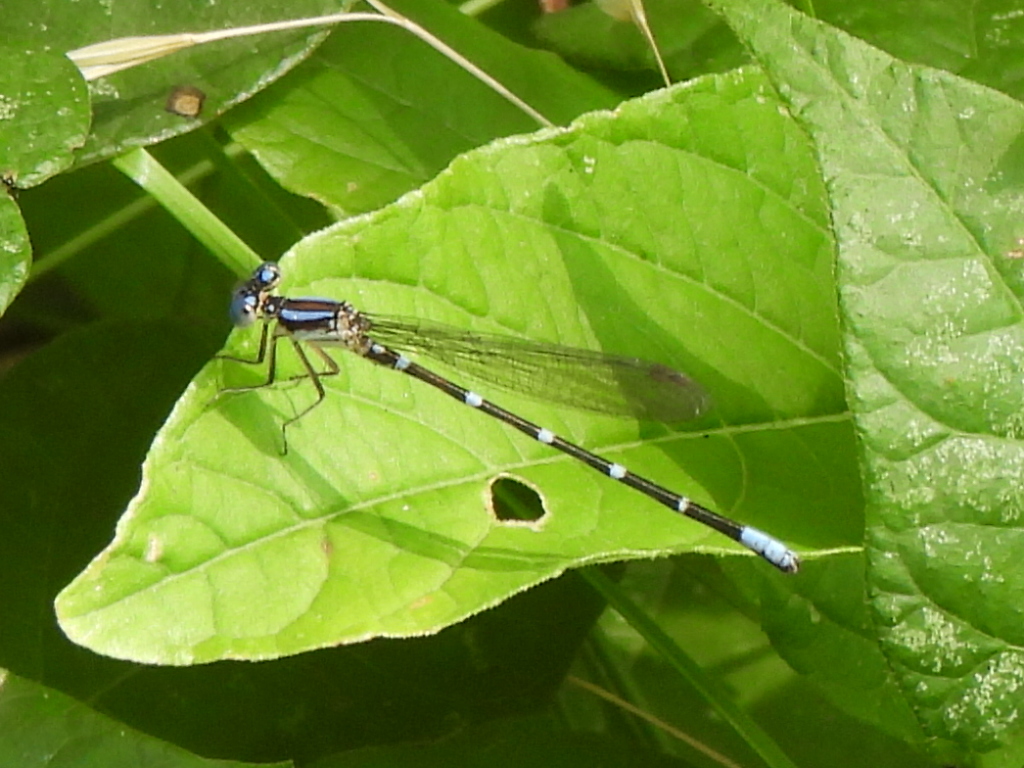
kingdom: Animalia
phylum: Arthropoda
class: Insecta
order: Odonata
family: Coenagrionidae
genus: Argia
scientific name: Argia sedula
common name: Blue-ringed dancer
